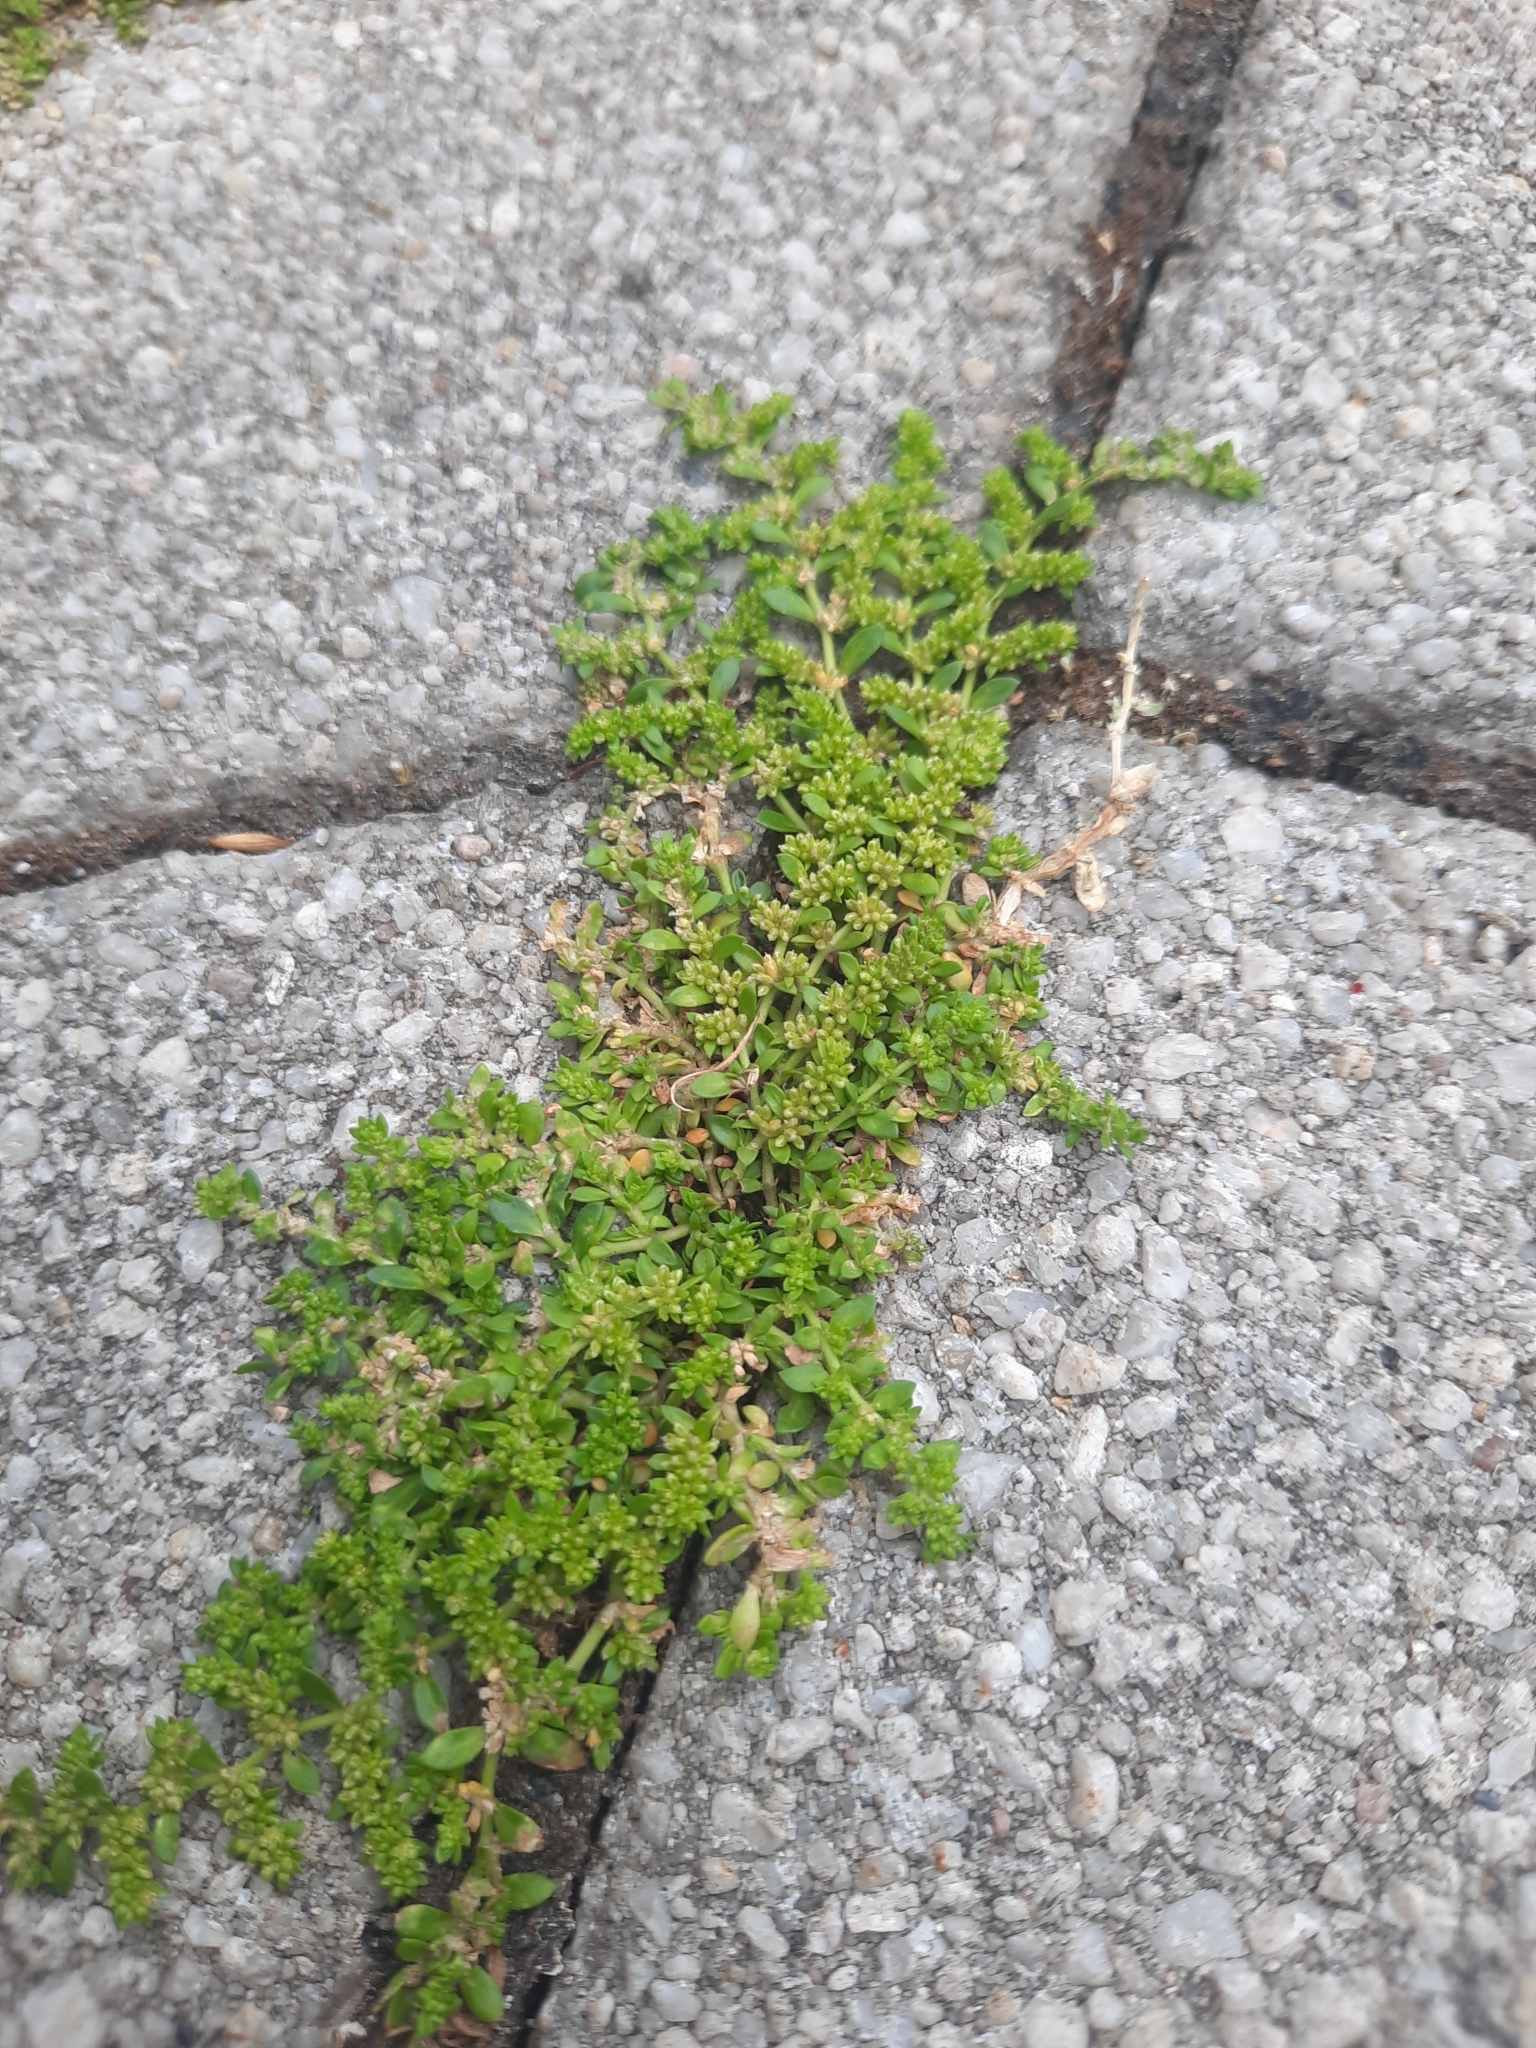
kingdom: Plantae
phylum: Tracheophyta
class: Magnoliopsida
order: Caryophyllales
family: Caryophyllaceae
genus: Herniaria
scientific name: Herniaria glabra
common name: Smooth rupturewort
